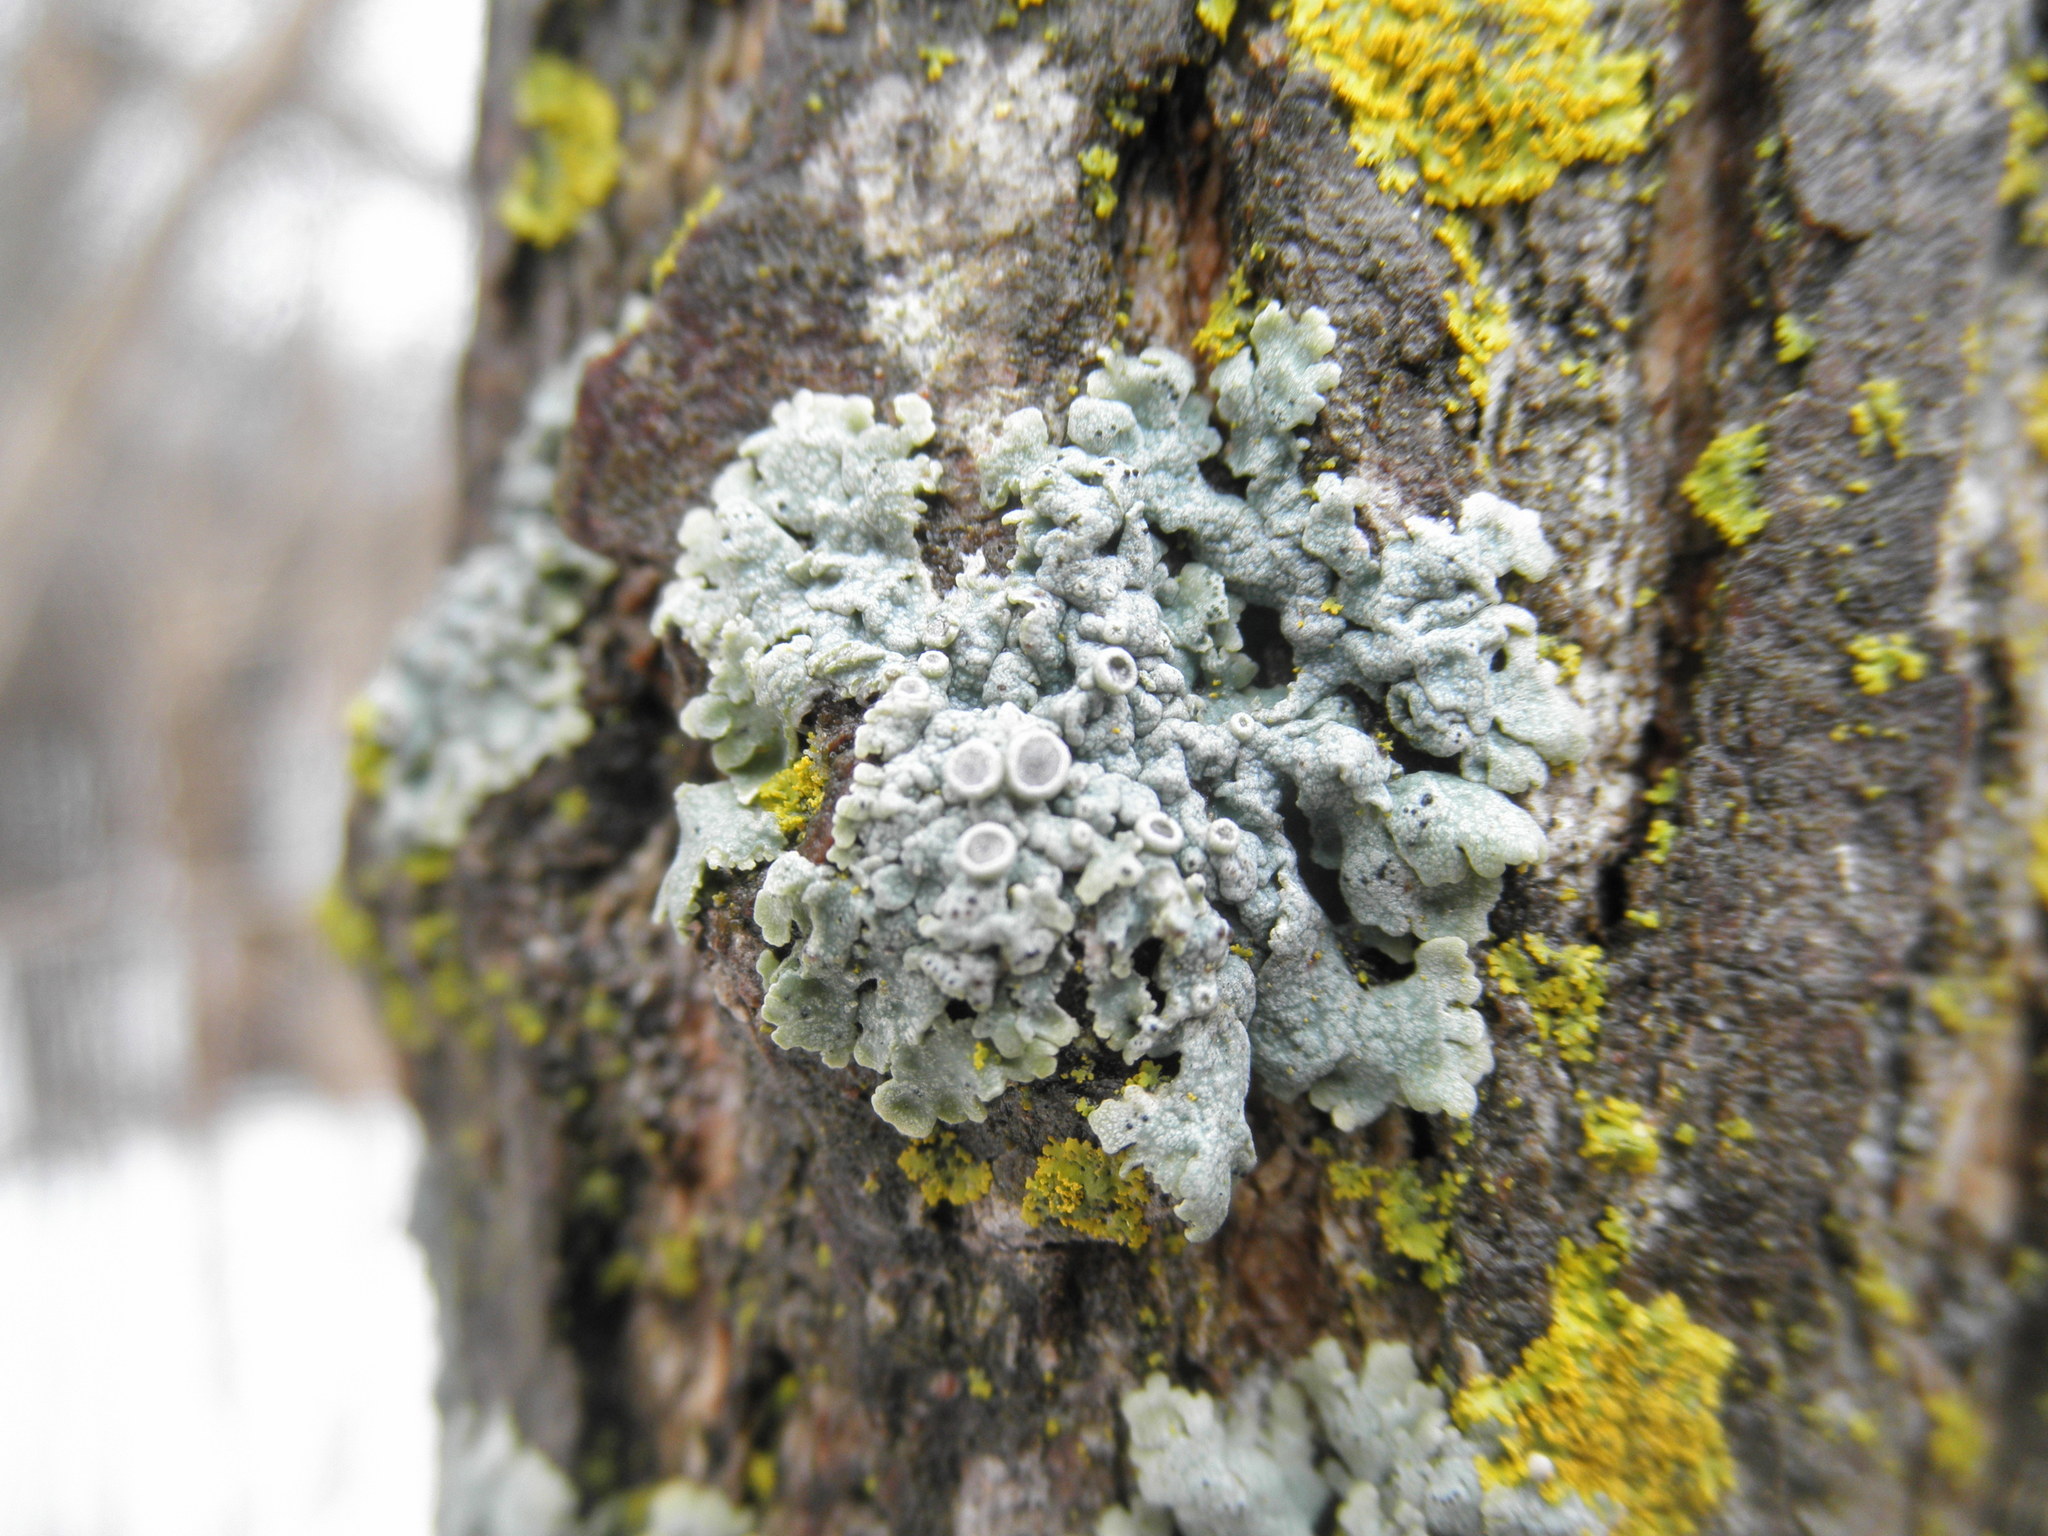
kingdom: Fungi
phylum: Ascomycota
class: Lecanoromycetes
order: Caliciales
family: Physciaceae
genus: Physcia
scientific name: Physcia aipolia
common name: Hoary rosette lichen
